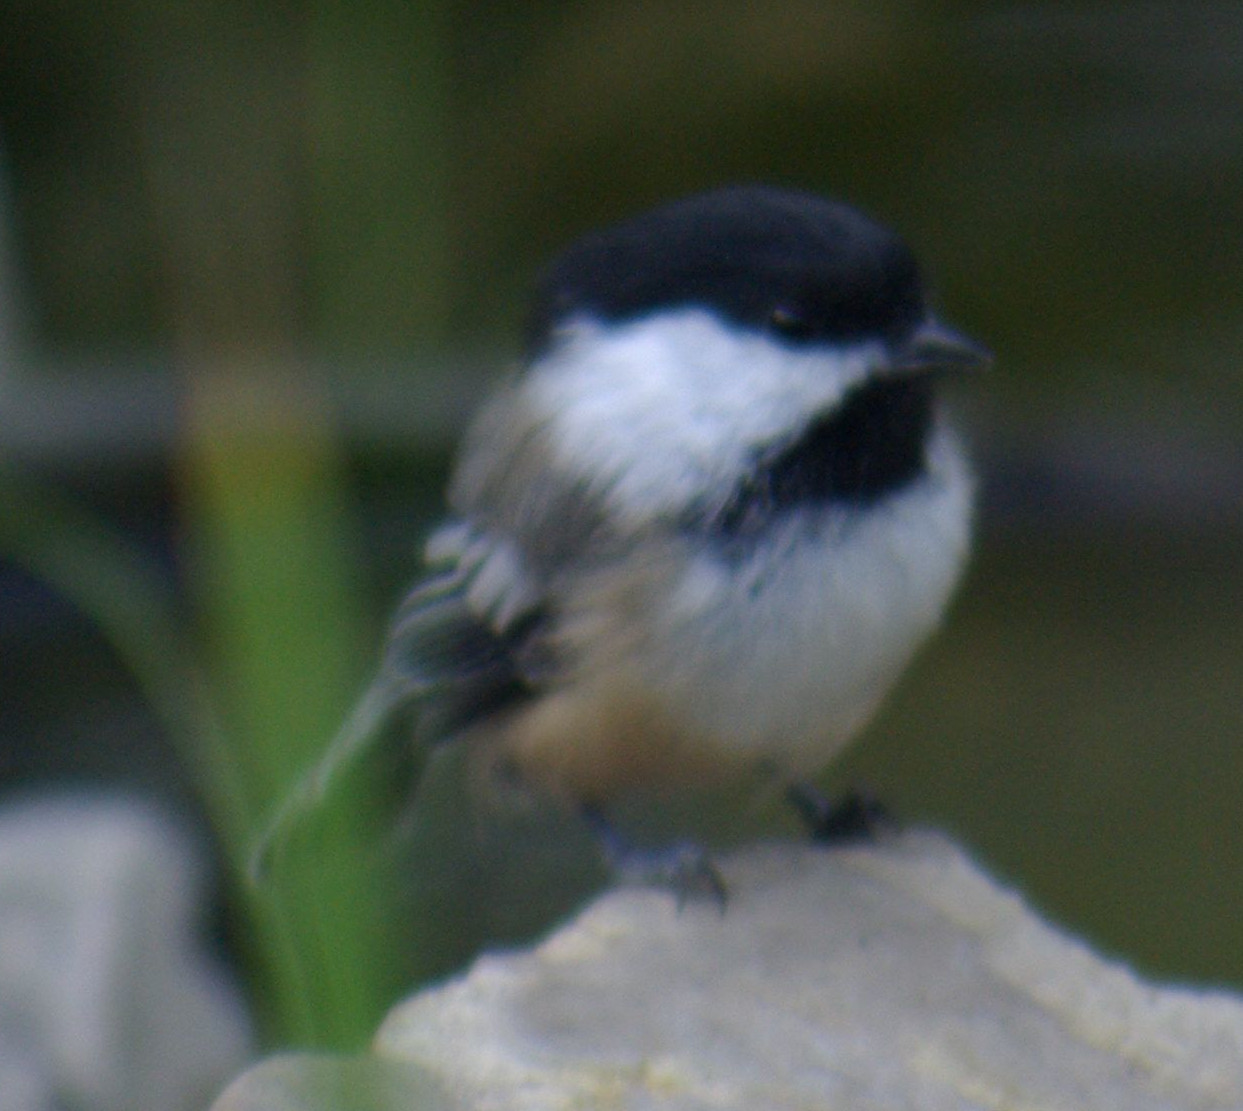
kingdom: Animalia
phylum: Chordata
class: Aves
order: Passeriformes
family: Paridae
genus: Poecile
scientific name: Poecile atricapillus
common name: Black-capped chickadee
